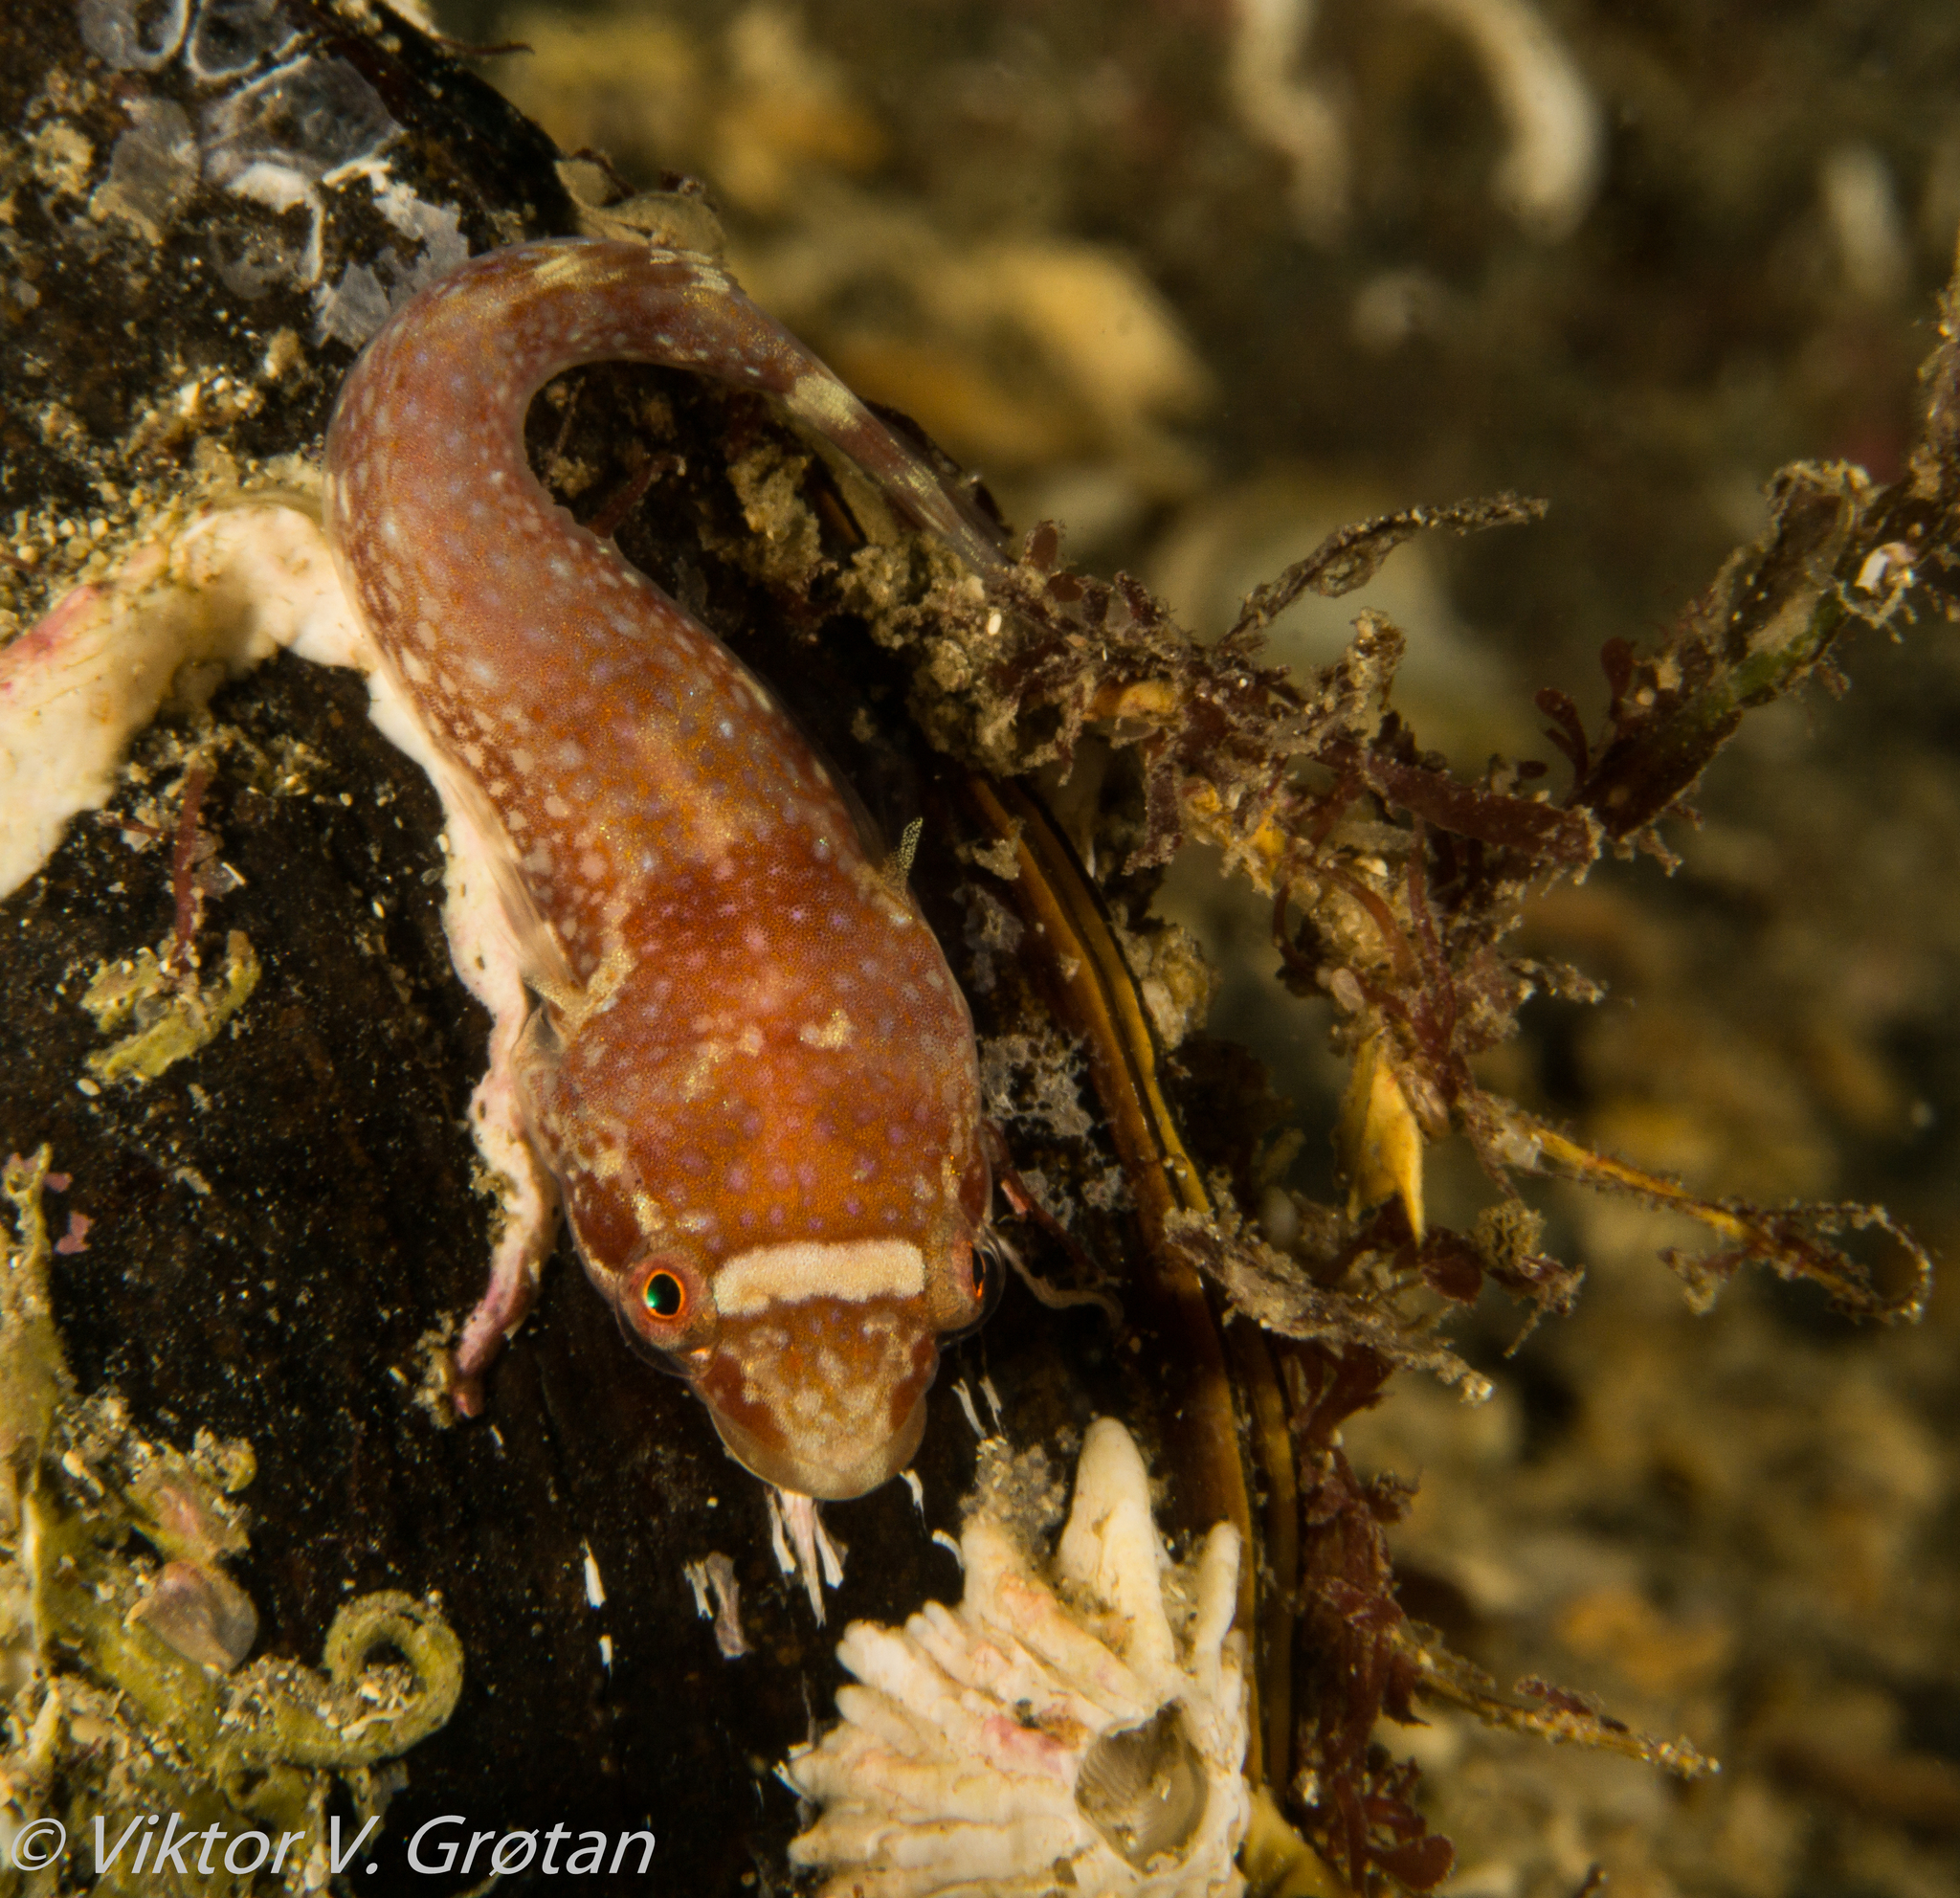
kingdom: Animalia
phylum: Chordata
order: Gobiesociformes
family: Gobiesocidae
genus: Diplecogaster
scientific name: Diplecogaster bimaculata
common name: Two-spotted clingfish
